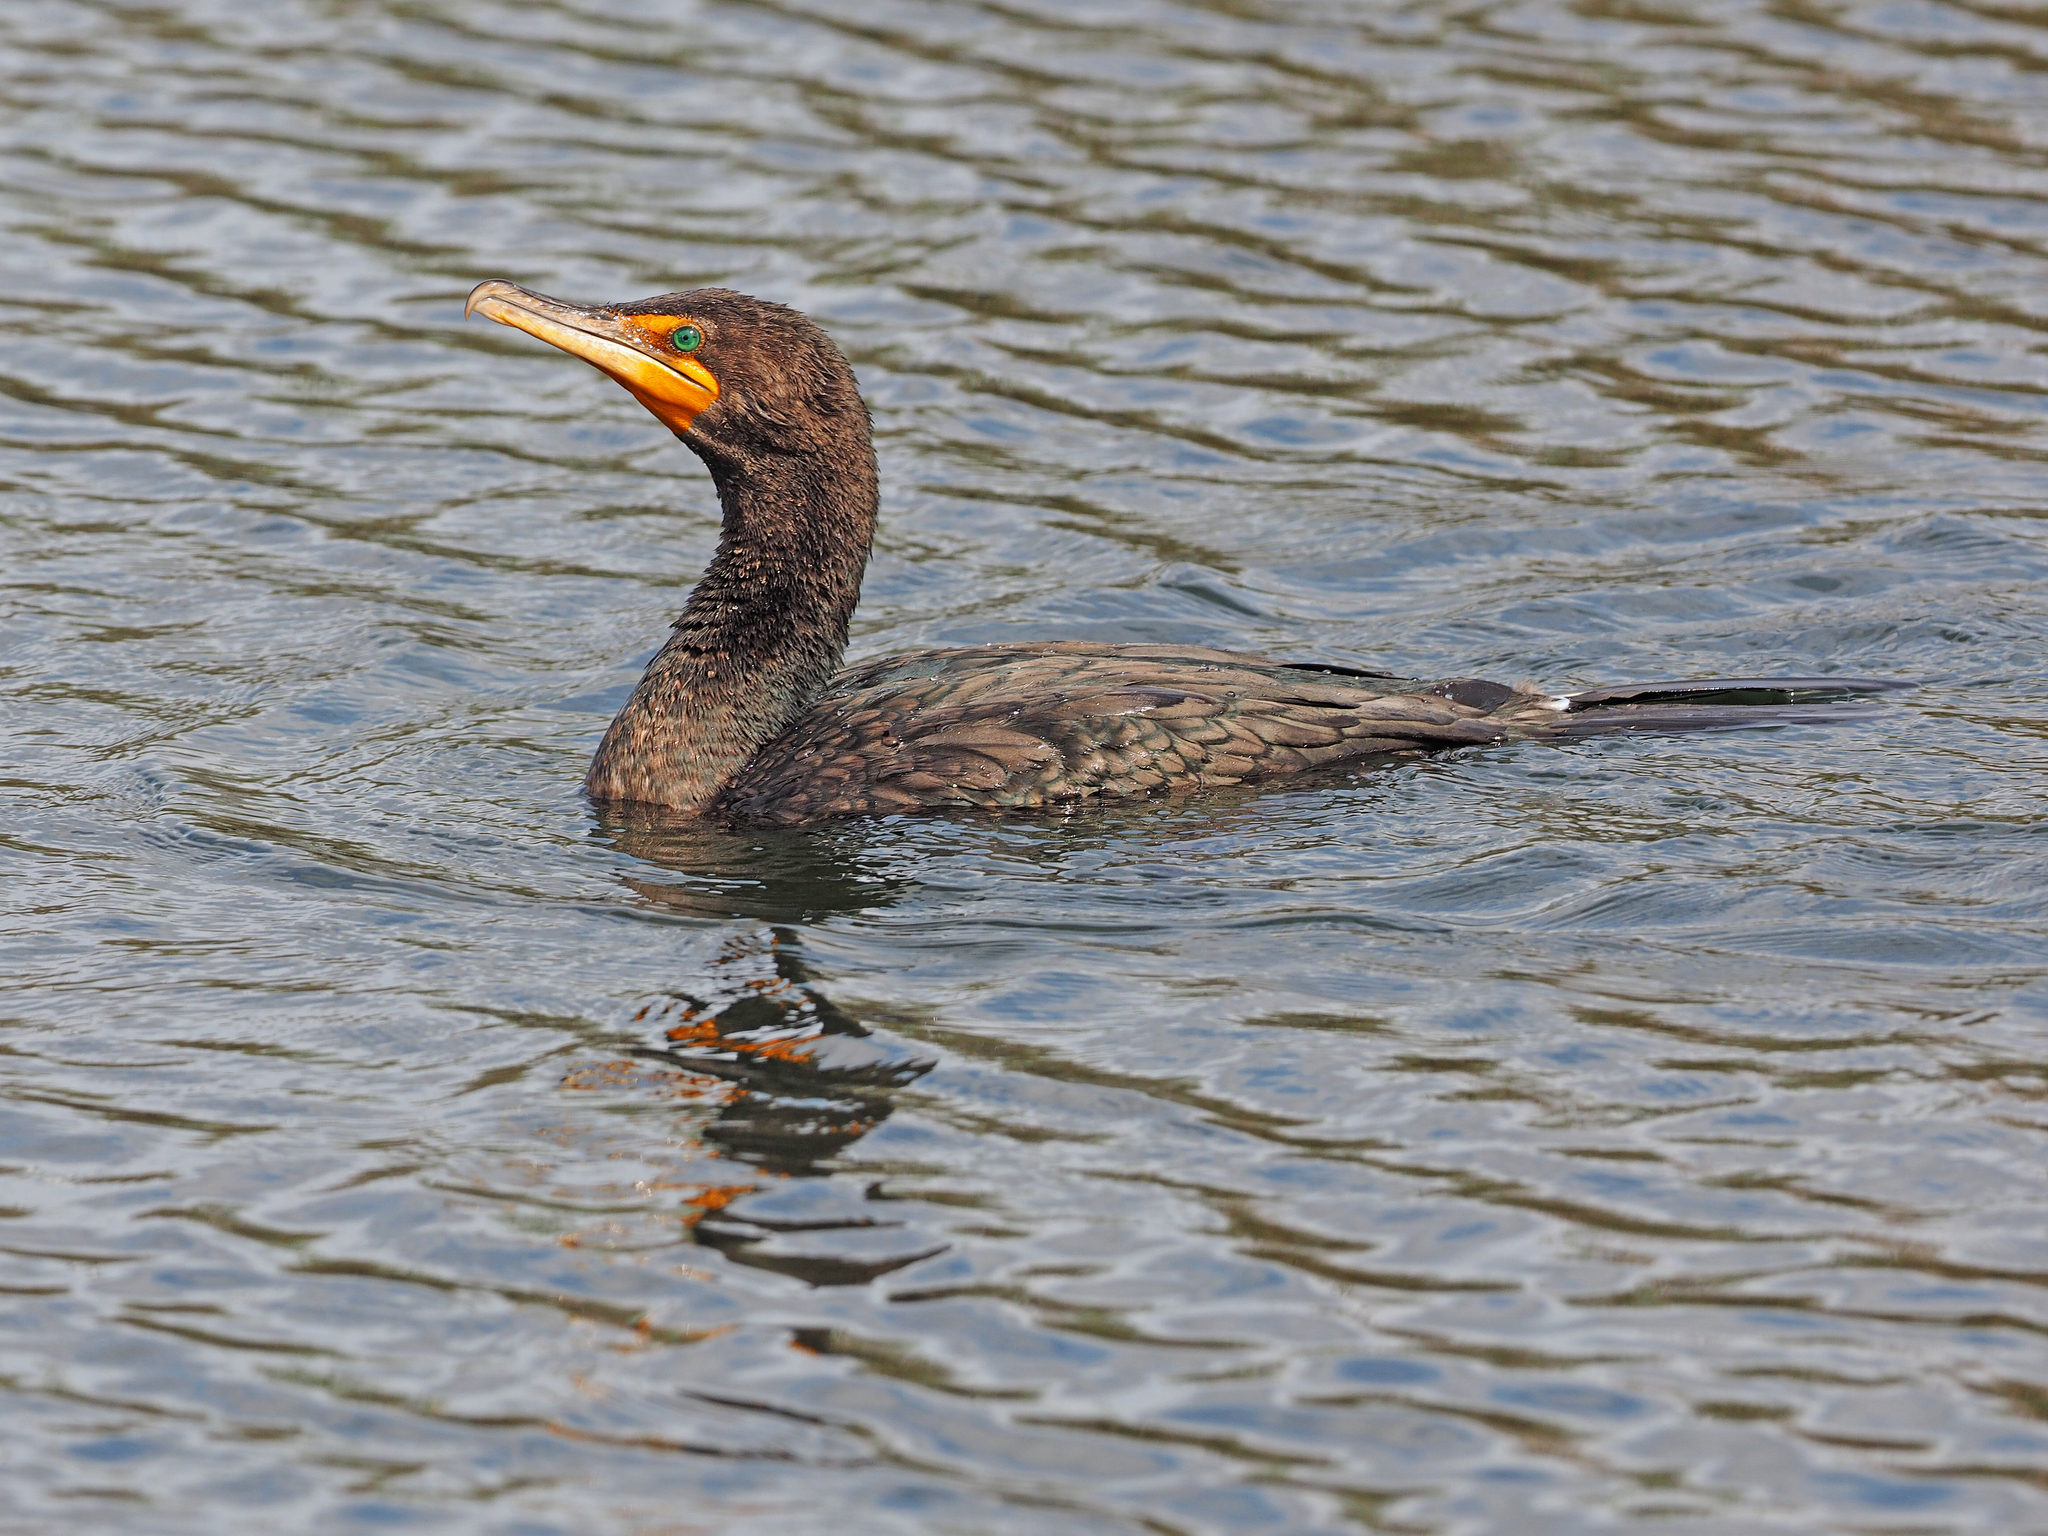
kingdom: Animalia
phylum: Chordata
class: Aves
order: Suliformes
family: Phalacrocoracidae
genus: Phalacrocorax
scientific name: Phalacrocorax auritus
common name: Double-crested cormorant
